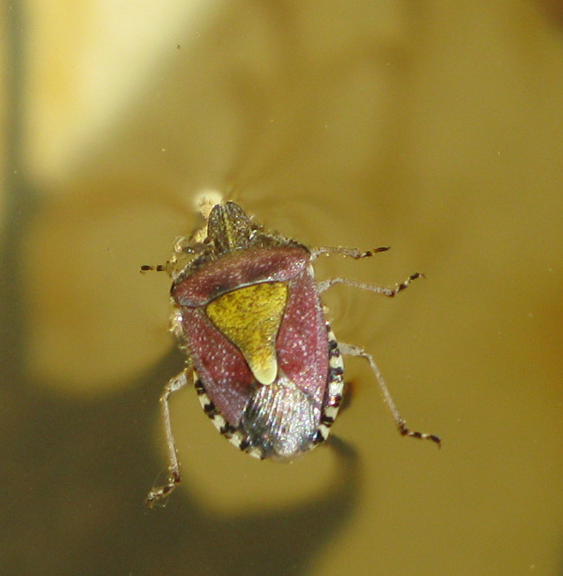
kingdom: Animalia
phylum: Arthropoda
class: Insecta
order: Hemiptera
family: Pentatomidae
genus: Dolycoris
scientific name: Dolycoris baccarum
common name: Sloe bug
